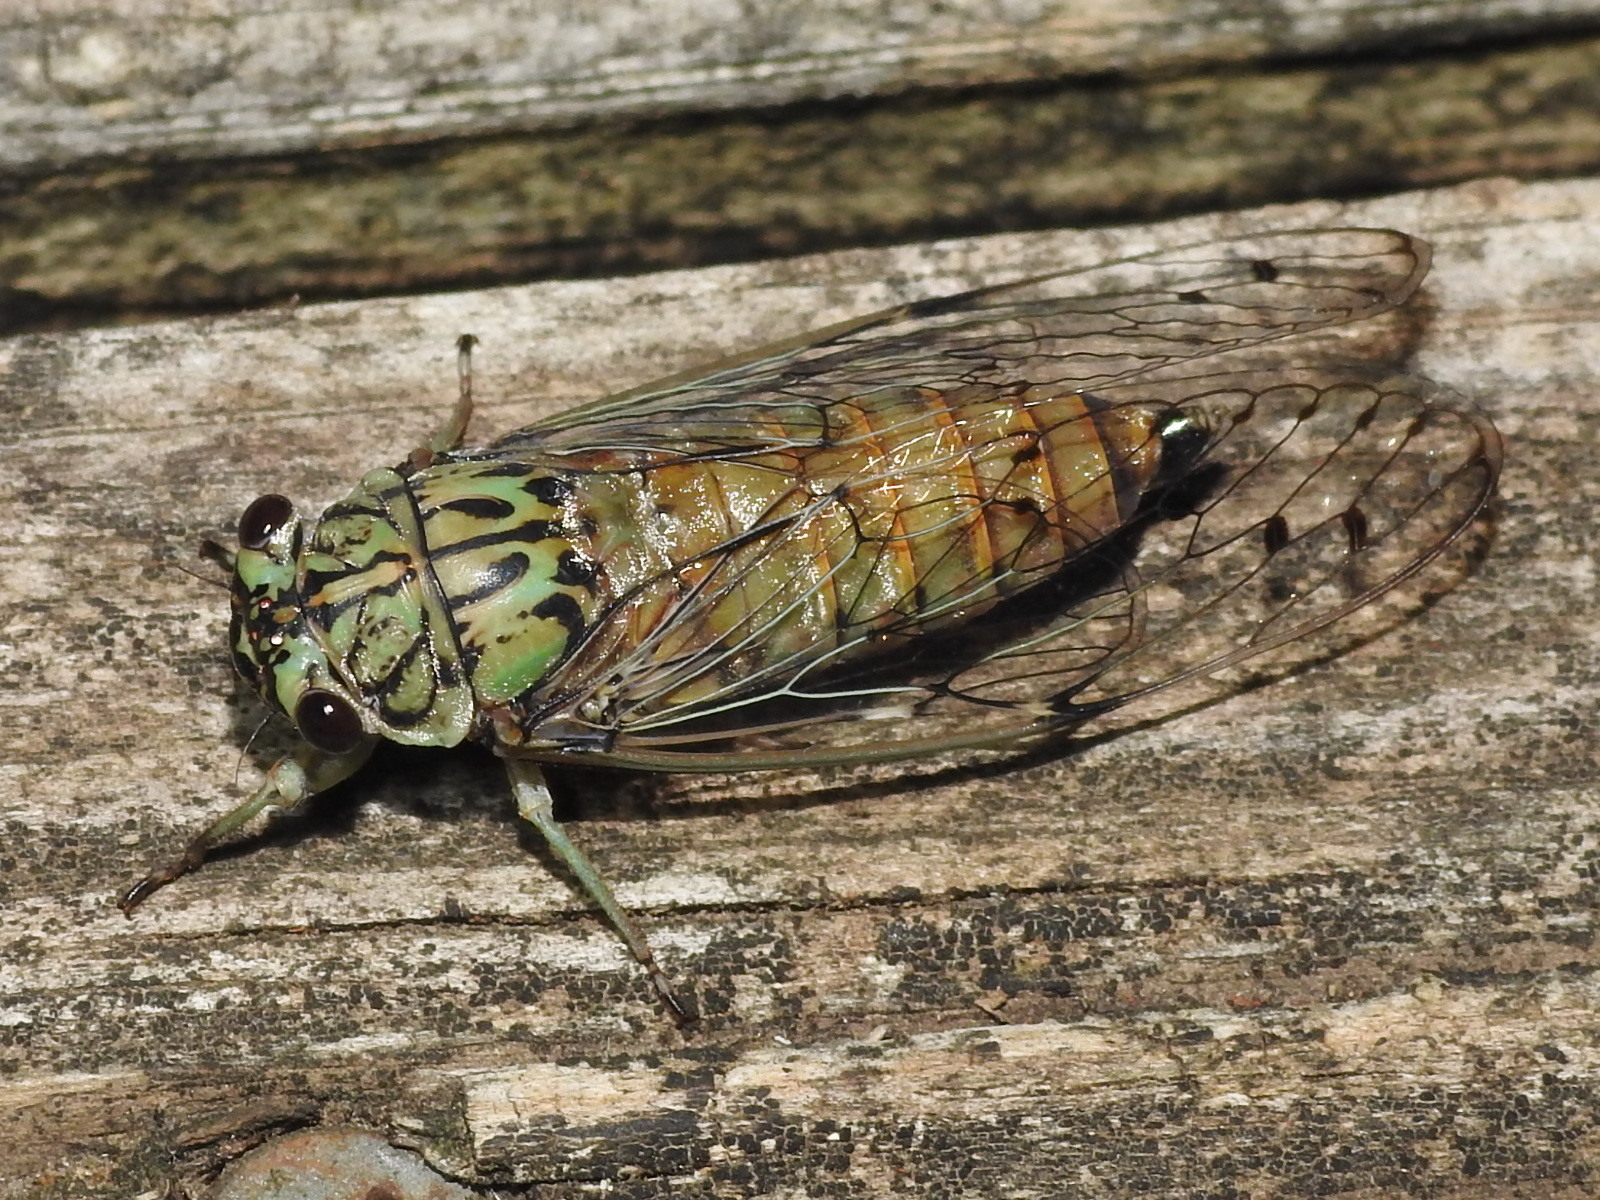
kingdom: Animalia
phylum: Arthropoda
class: Insecta
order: Hemiptera
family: Cicadidae
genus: Neocicada
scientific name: Neocicada hieroglyphica
